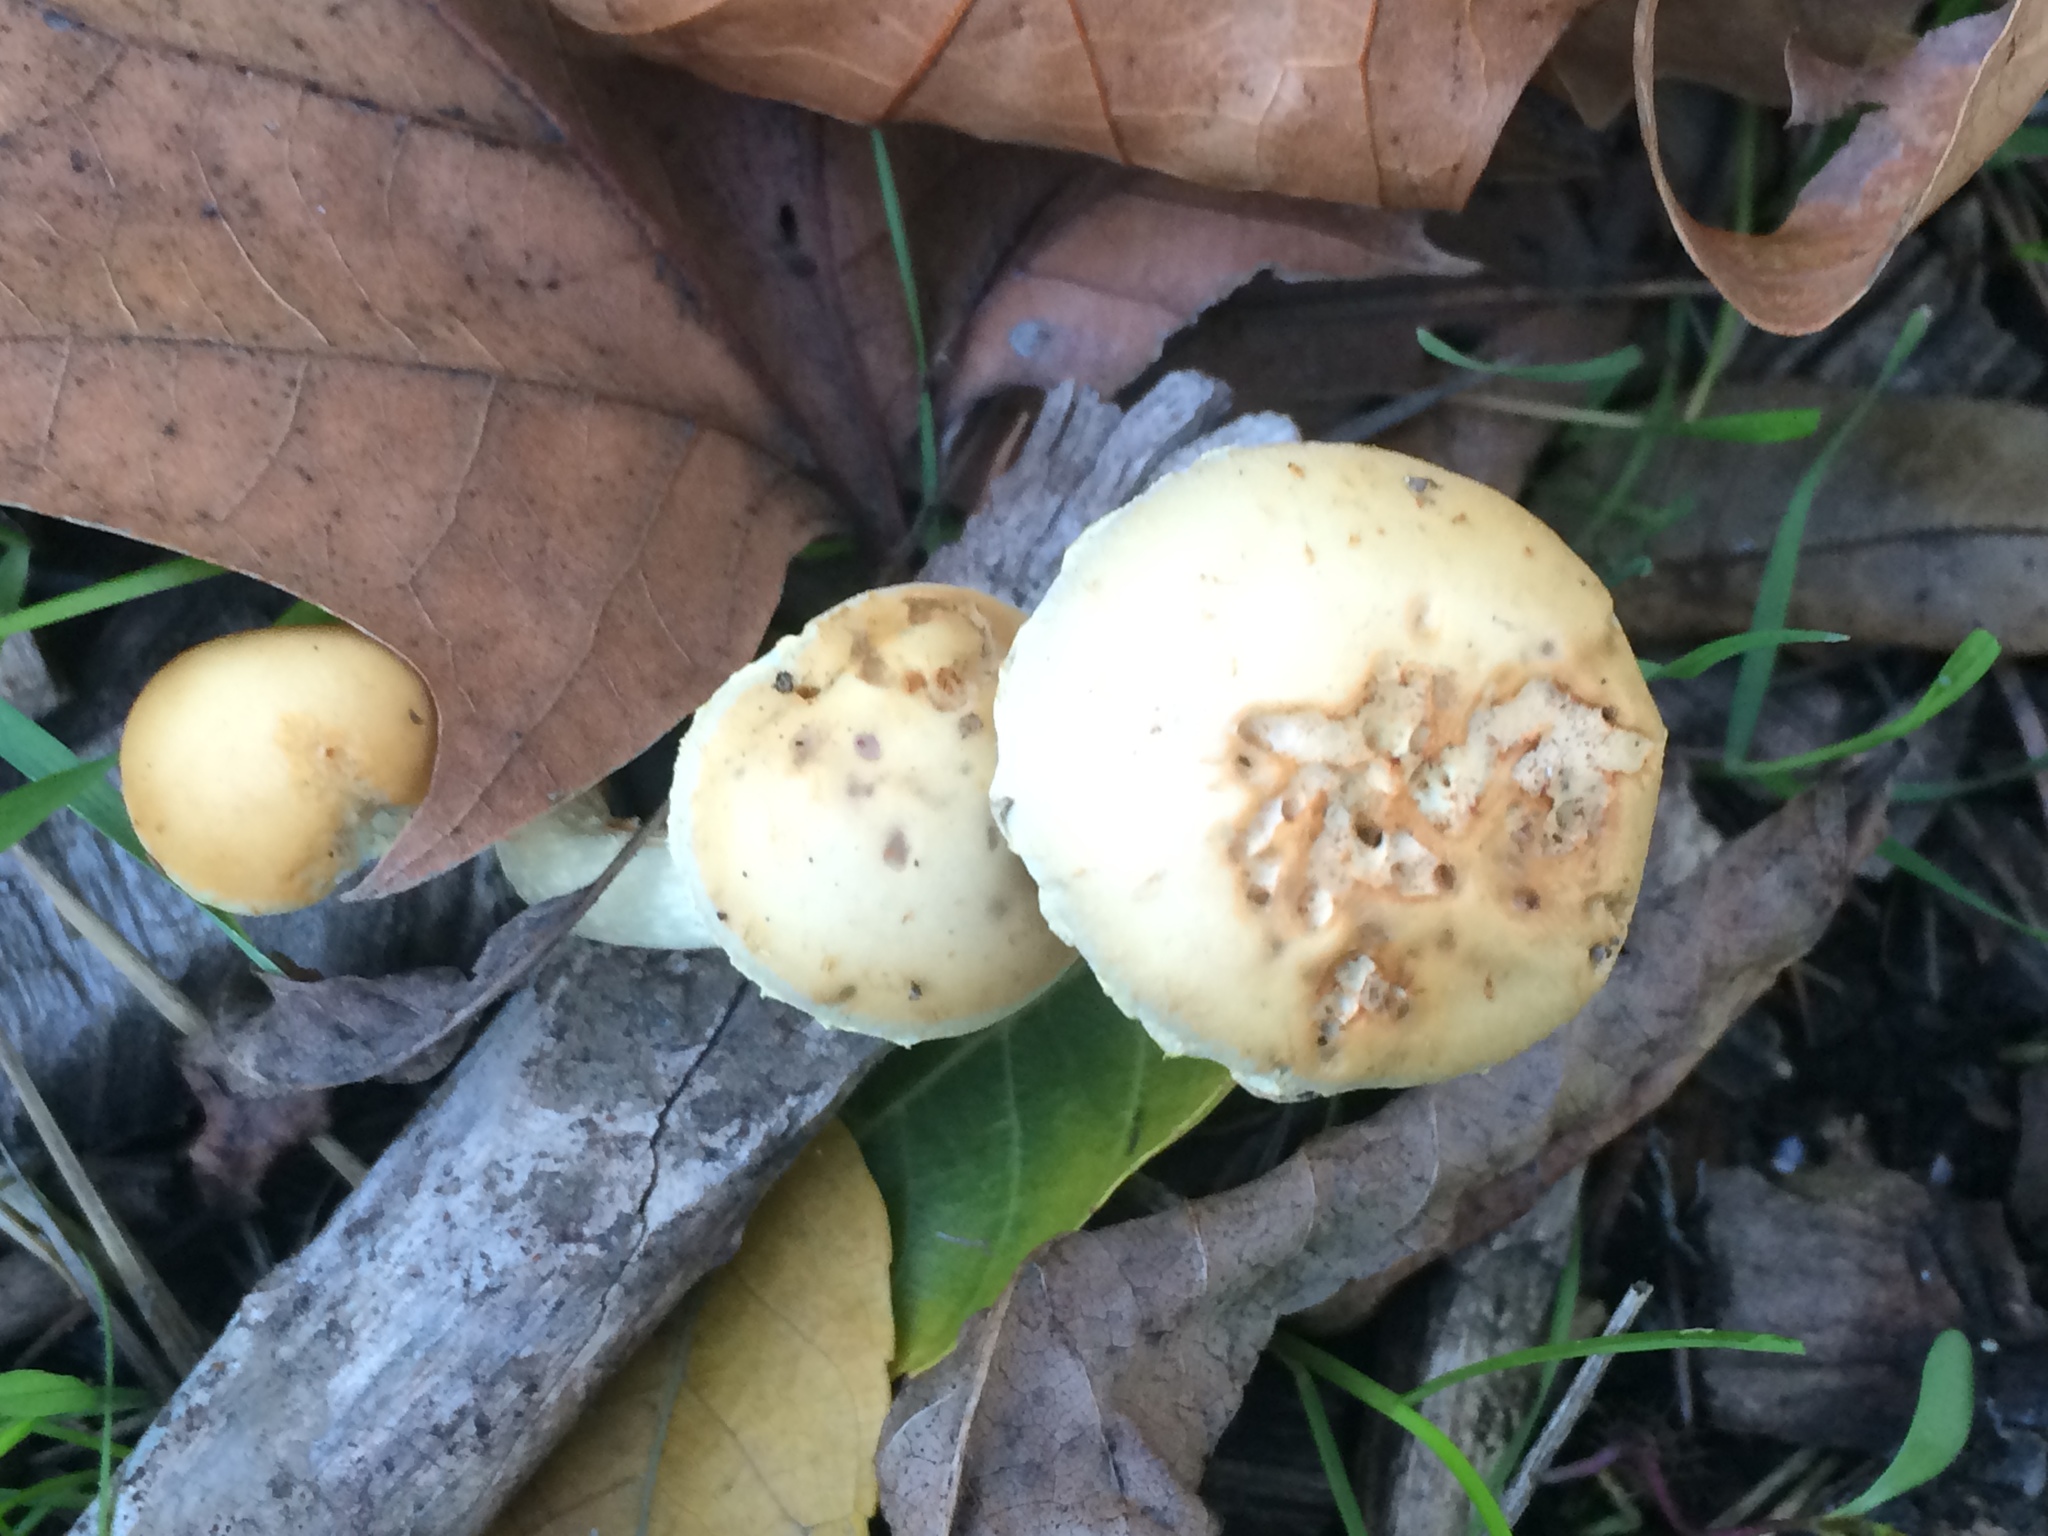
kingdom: Fungi
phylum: Basidiomycota
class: Agaricomycetes
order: Agaricales
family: Strophariaceae
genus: Leratiomyces
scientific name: Leratiomyces percevalii
